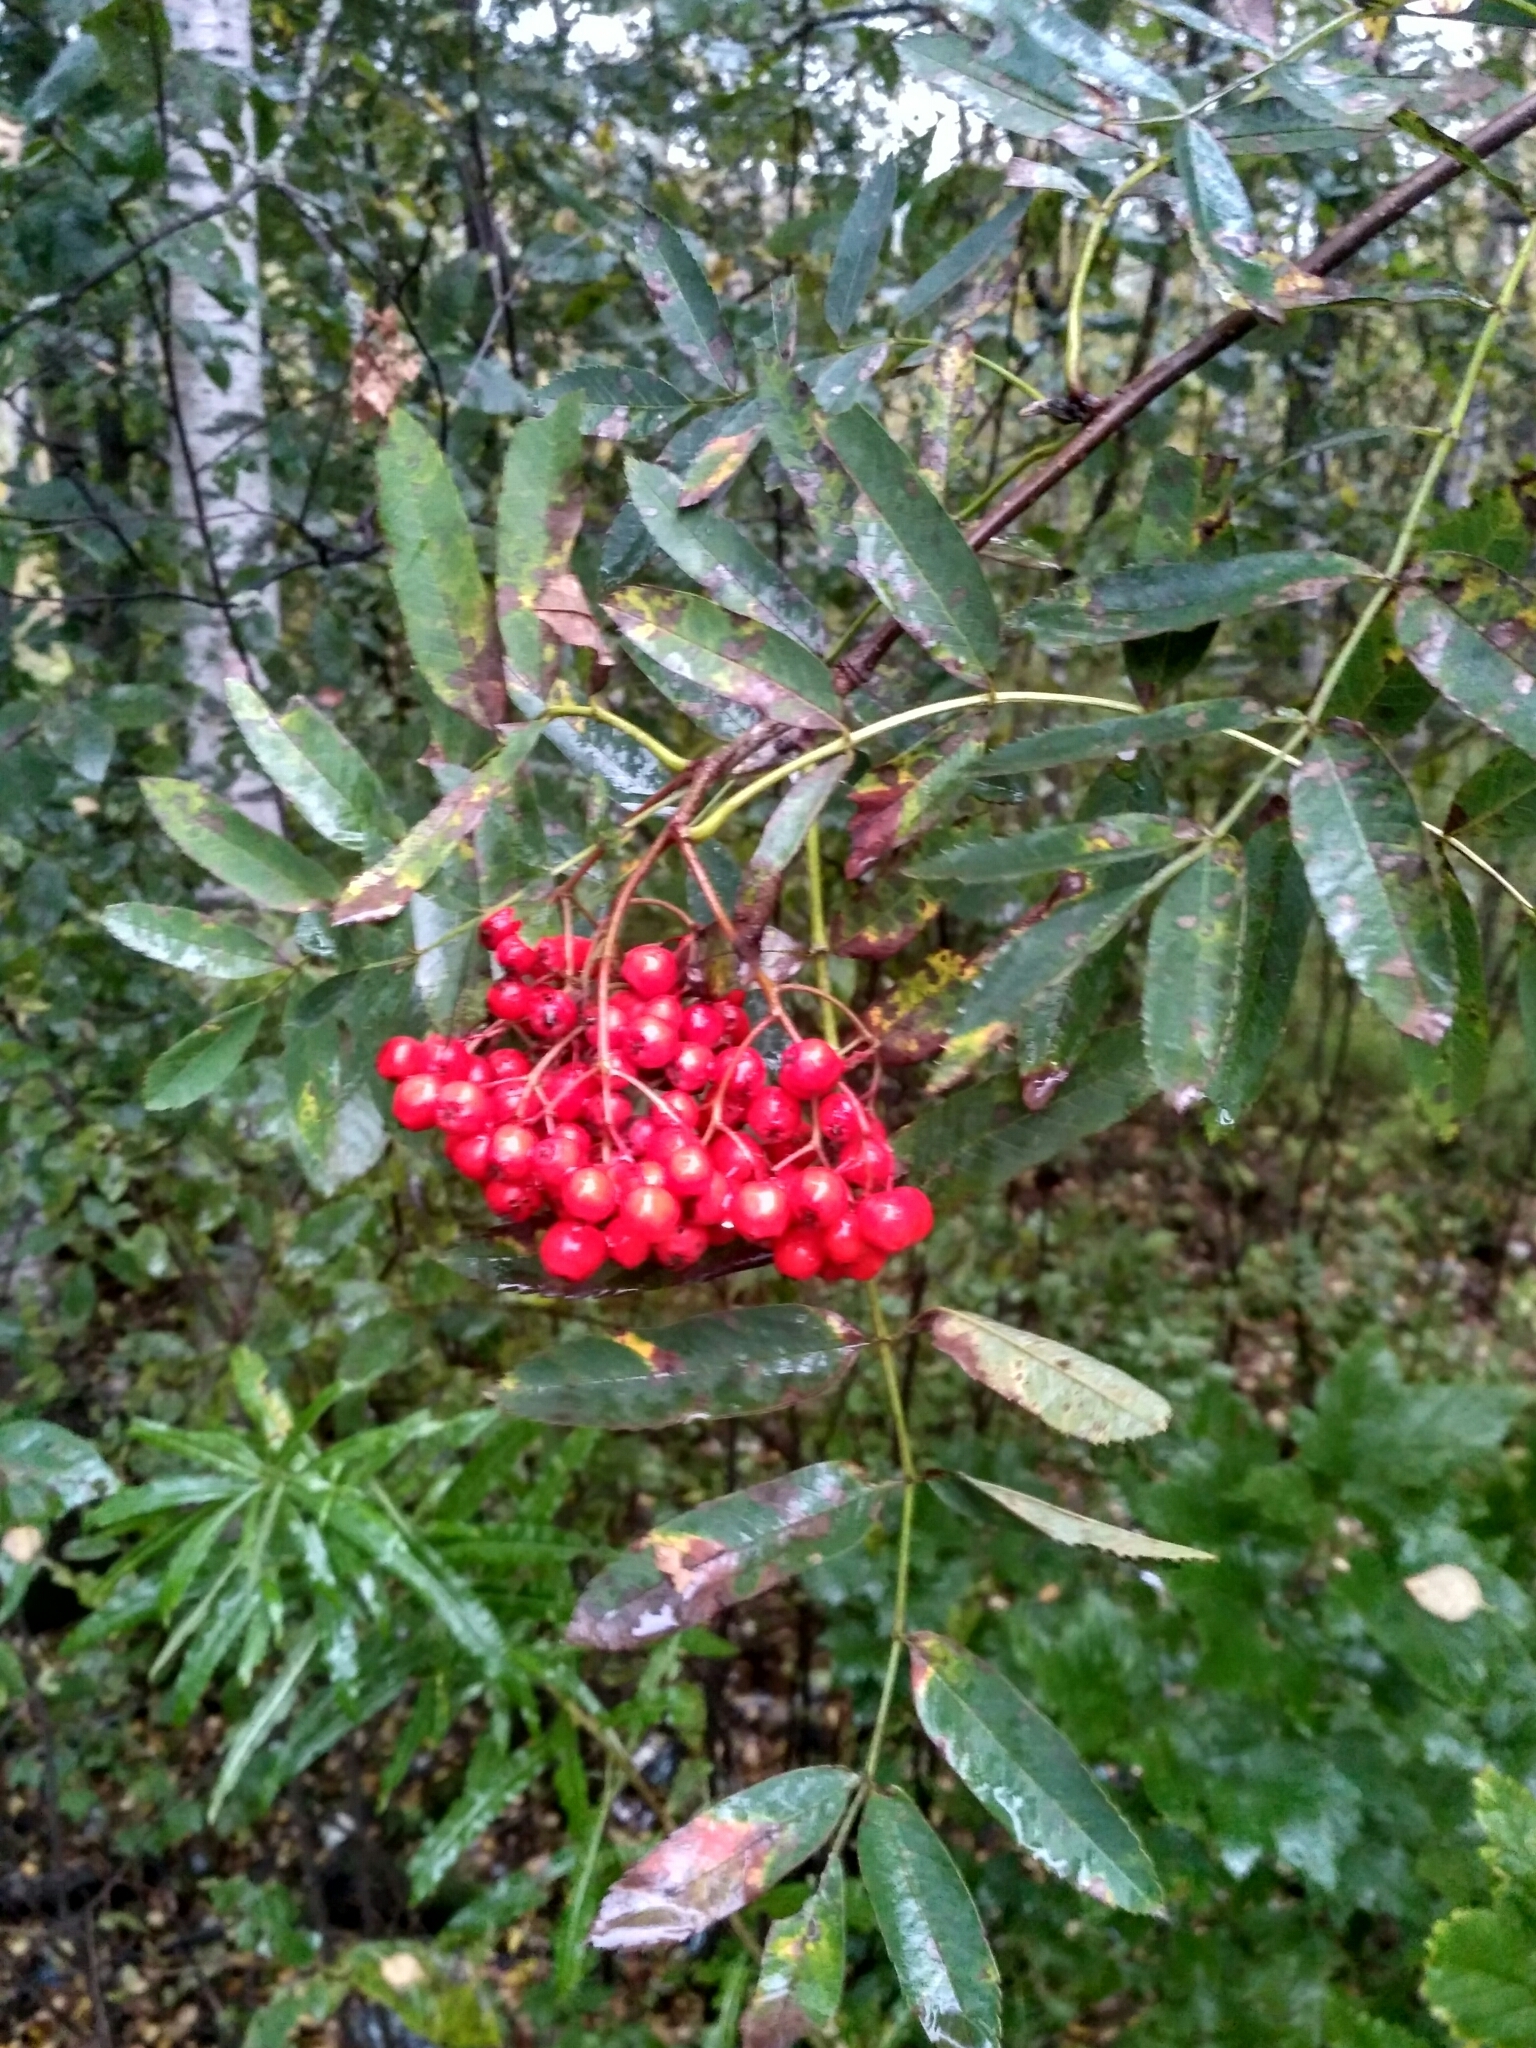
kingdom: Plantae
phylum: Tracheophyta
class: Magnoliopsida
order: Rosales
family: Rosaceae
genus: Sorbus
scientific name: Sorbus aucuparia
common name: Rowan
